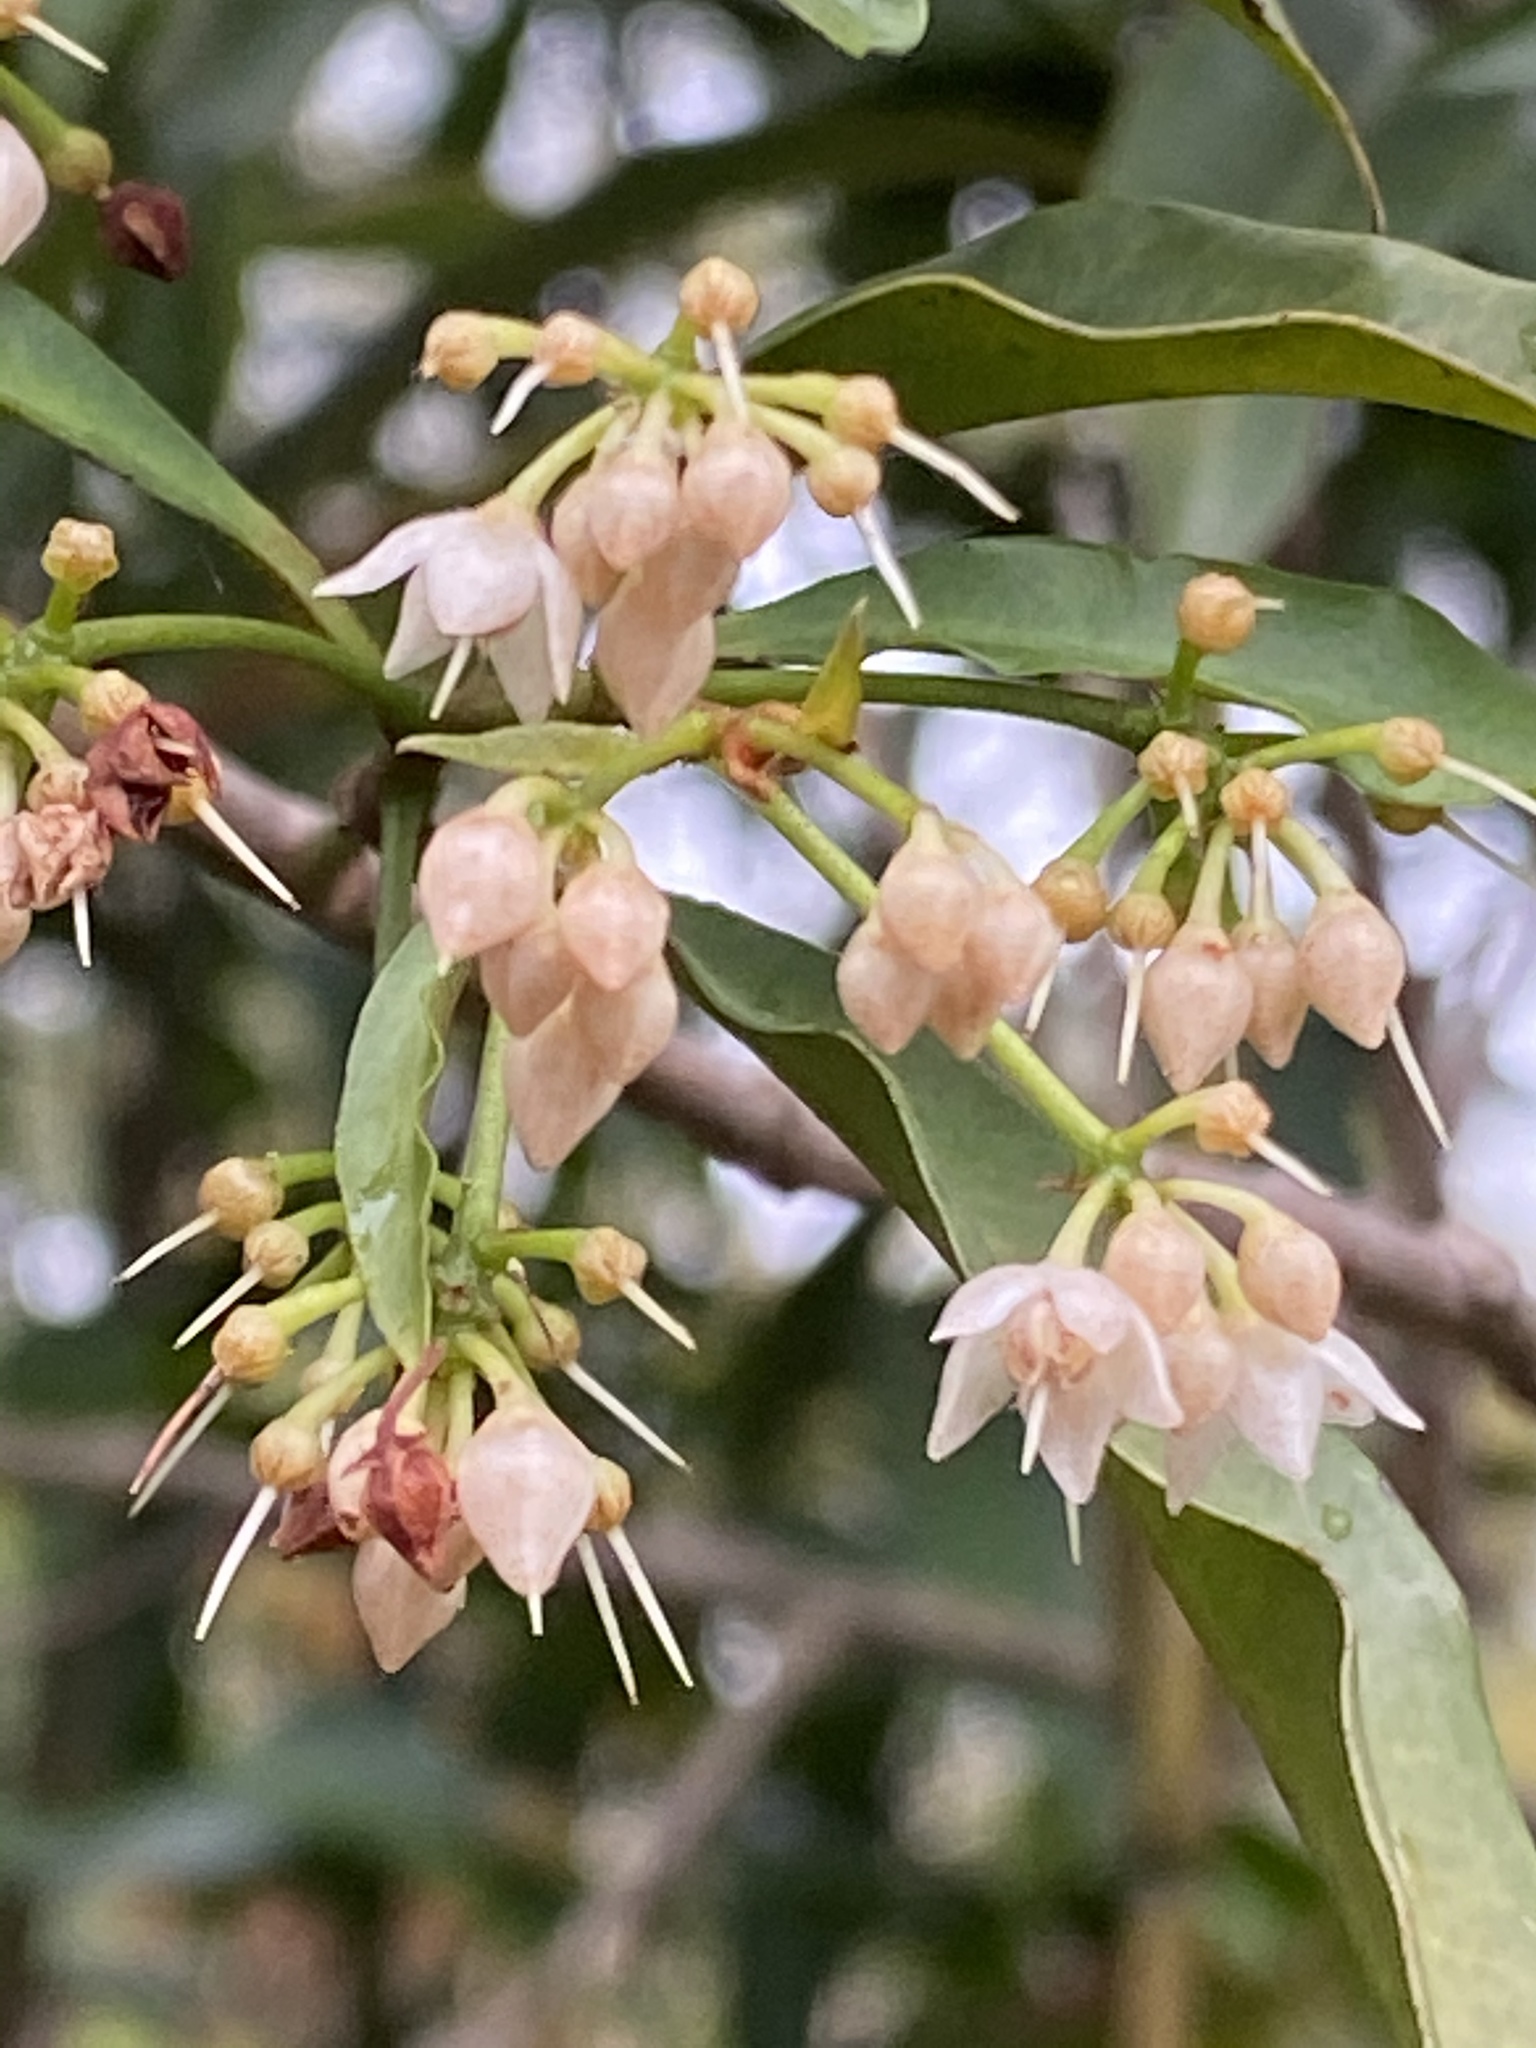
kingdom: Plantae
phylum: Tracheophyta
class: Magnoliopsida
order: Ericales
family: Primulaceae
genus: Ardisia
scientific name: Ardisia quinquegona
